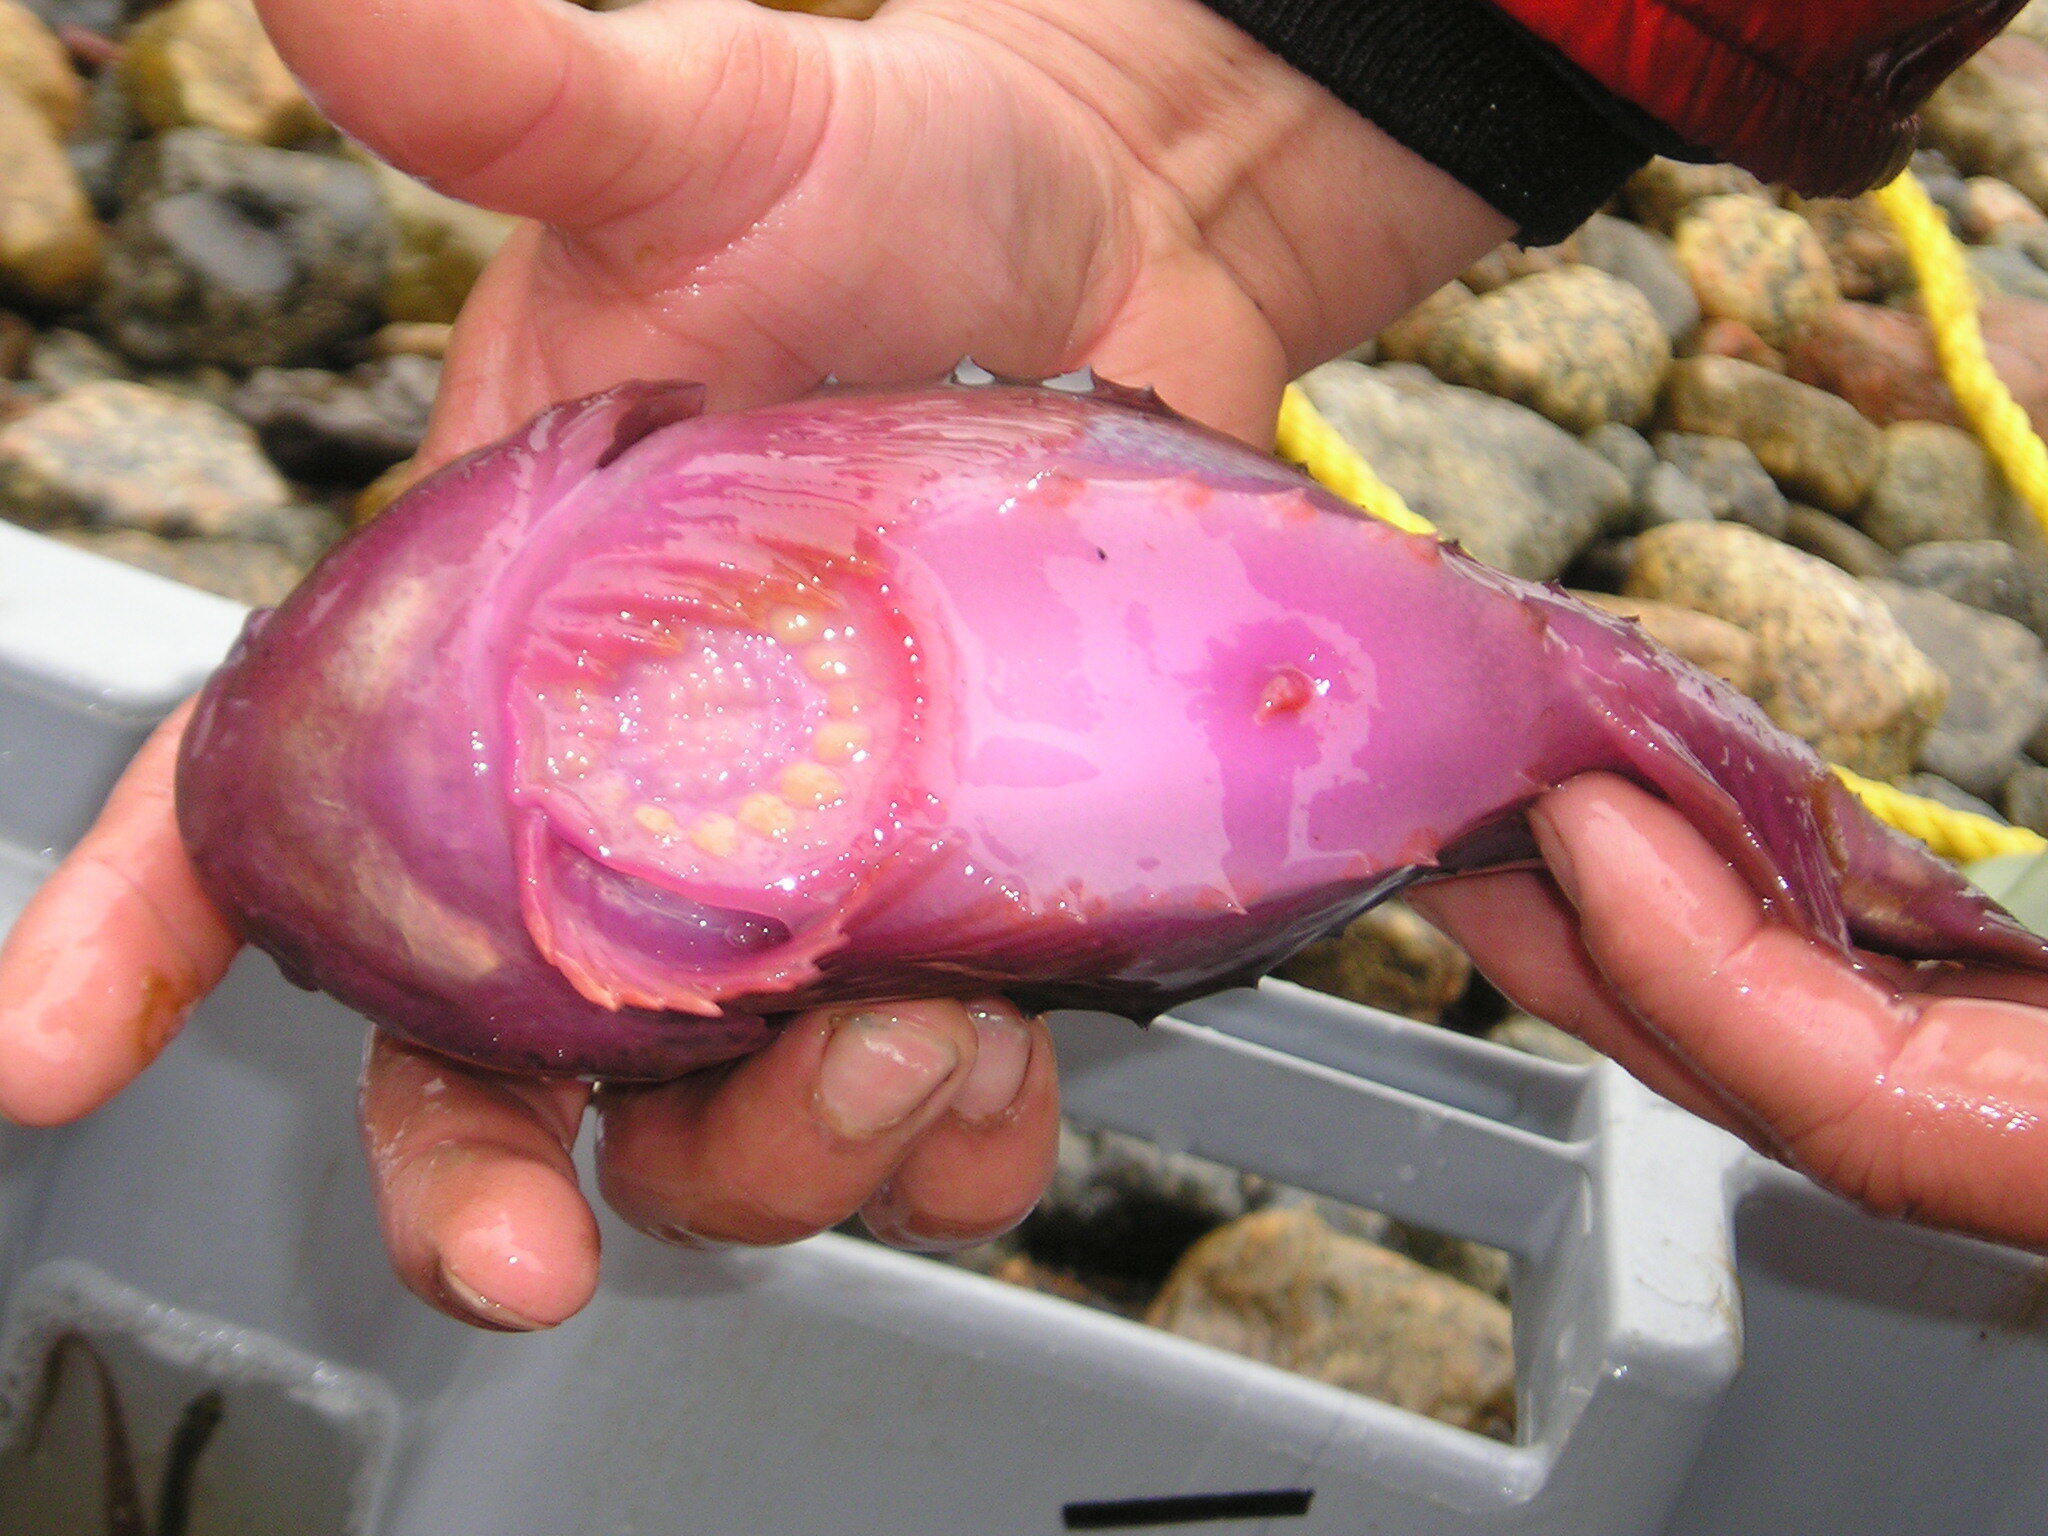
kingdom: Animalia
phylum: Chordata
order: Scorpaeniformes
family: Cyclopteridae
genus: Cyclopterus
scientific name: Cyclopterus lumpus
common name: Lumpsucker
